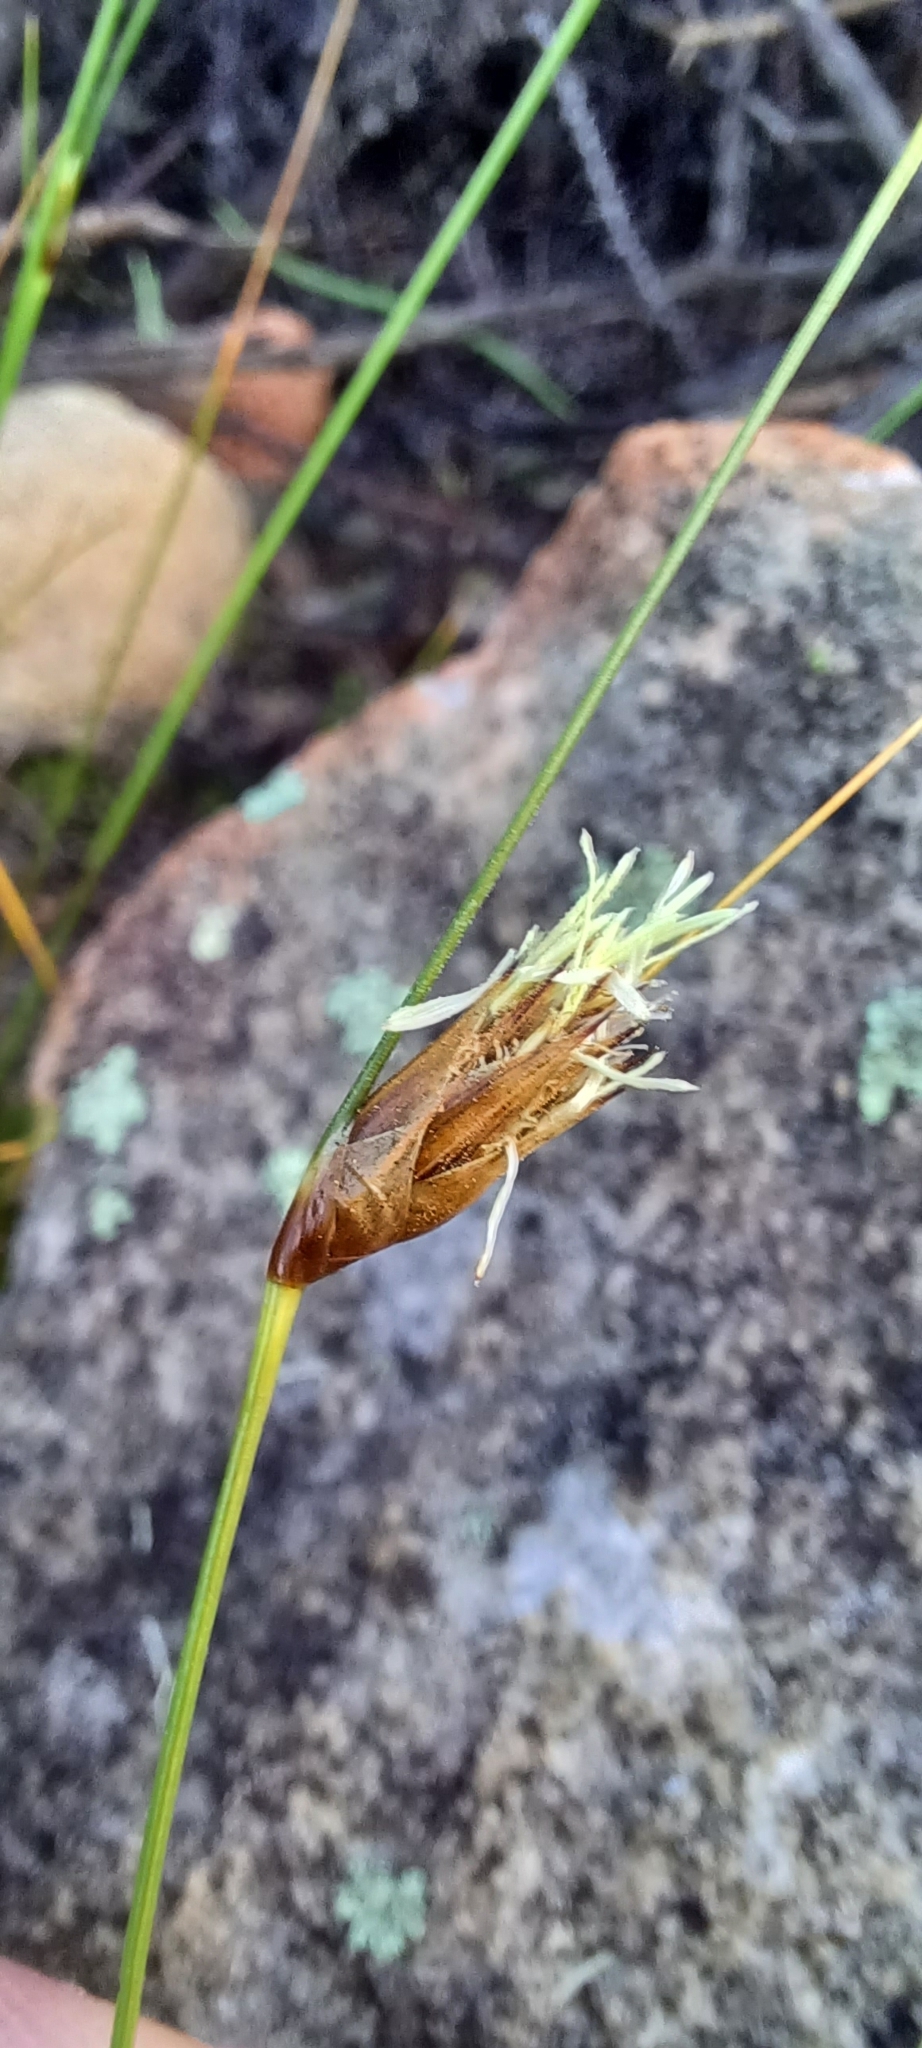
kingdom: Plantae
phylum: Tracheophyta
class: Liliopsida
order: Poales
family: Cyperaceae
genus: Ficinia
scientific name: Ficinia nigrescens
